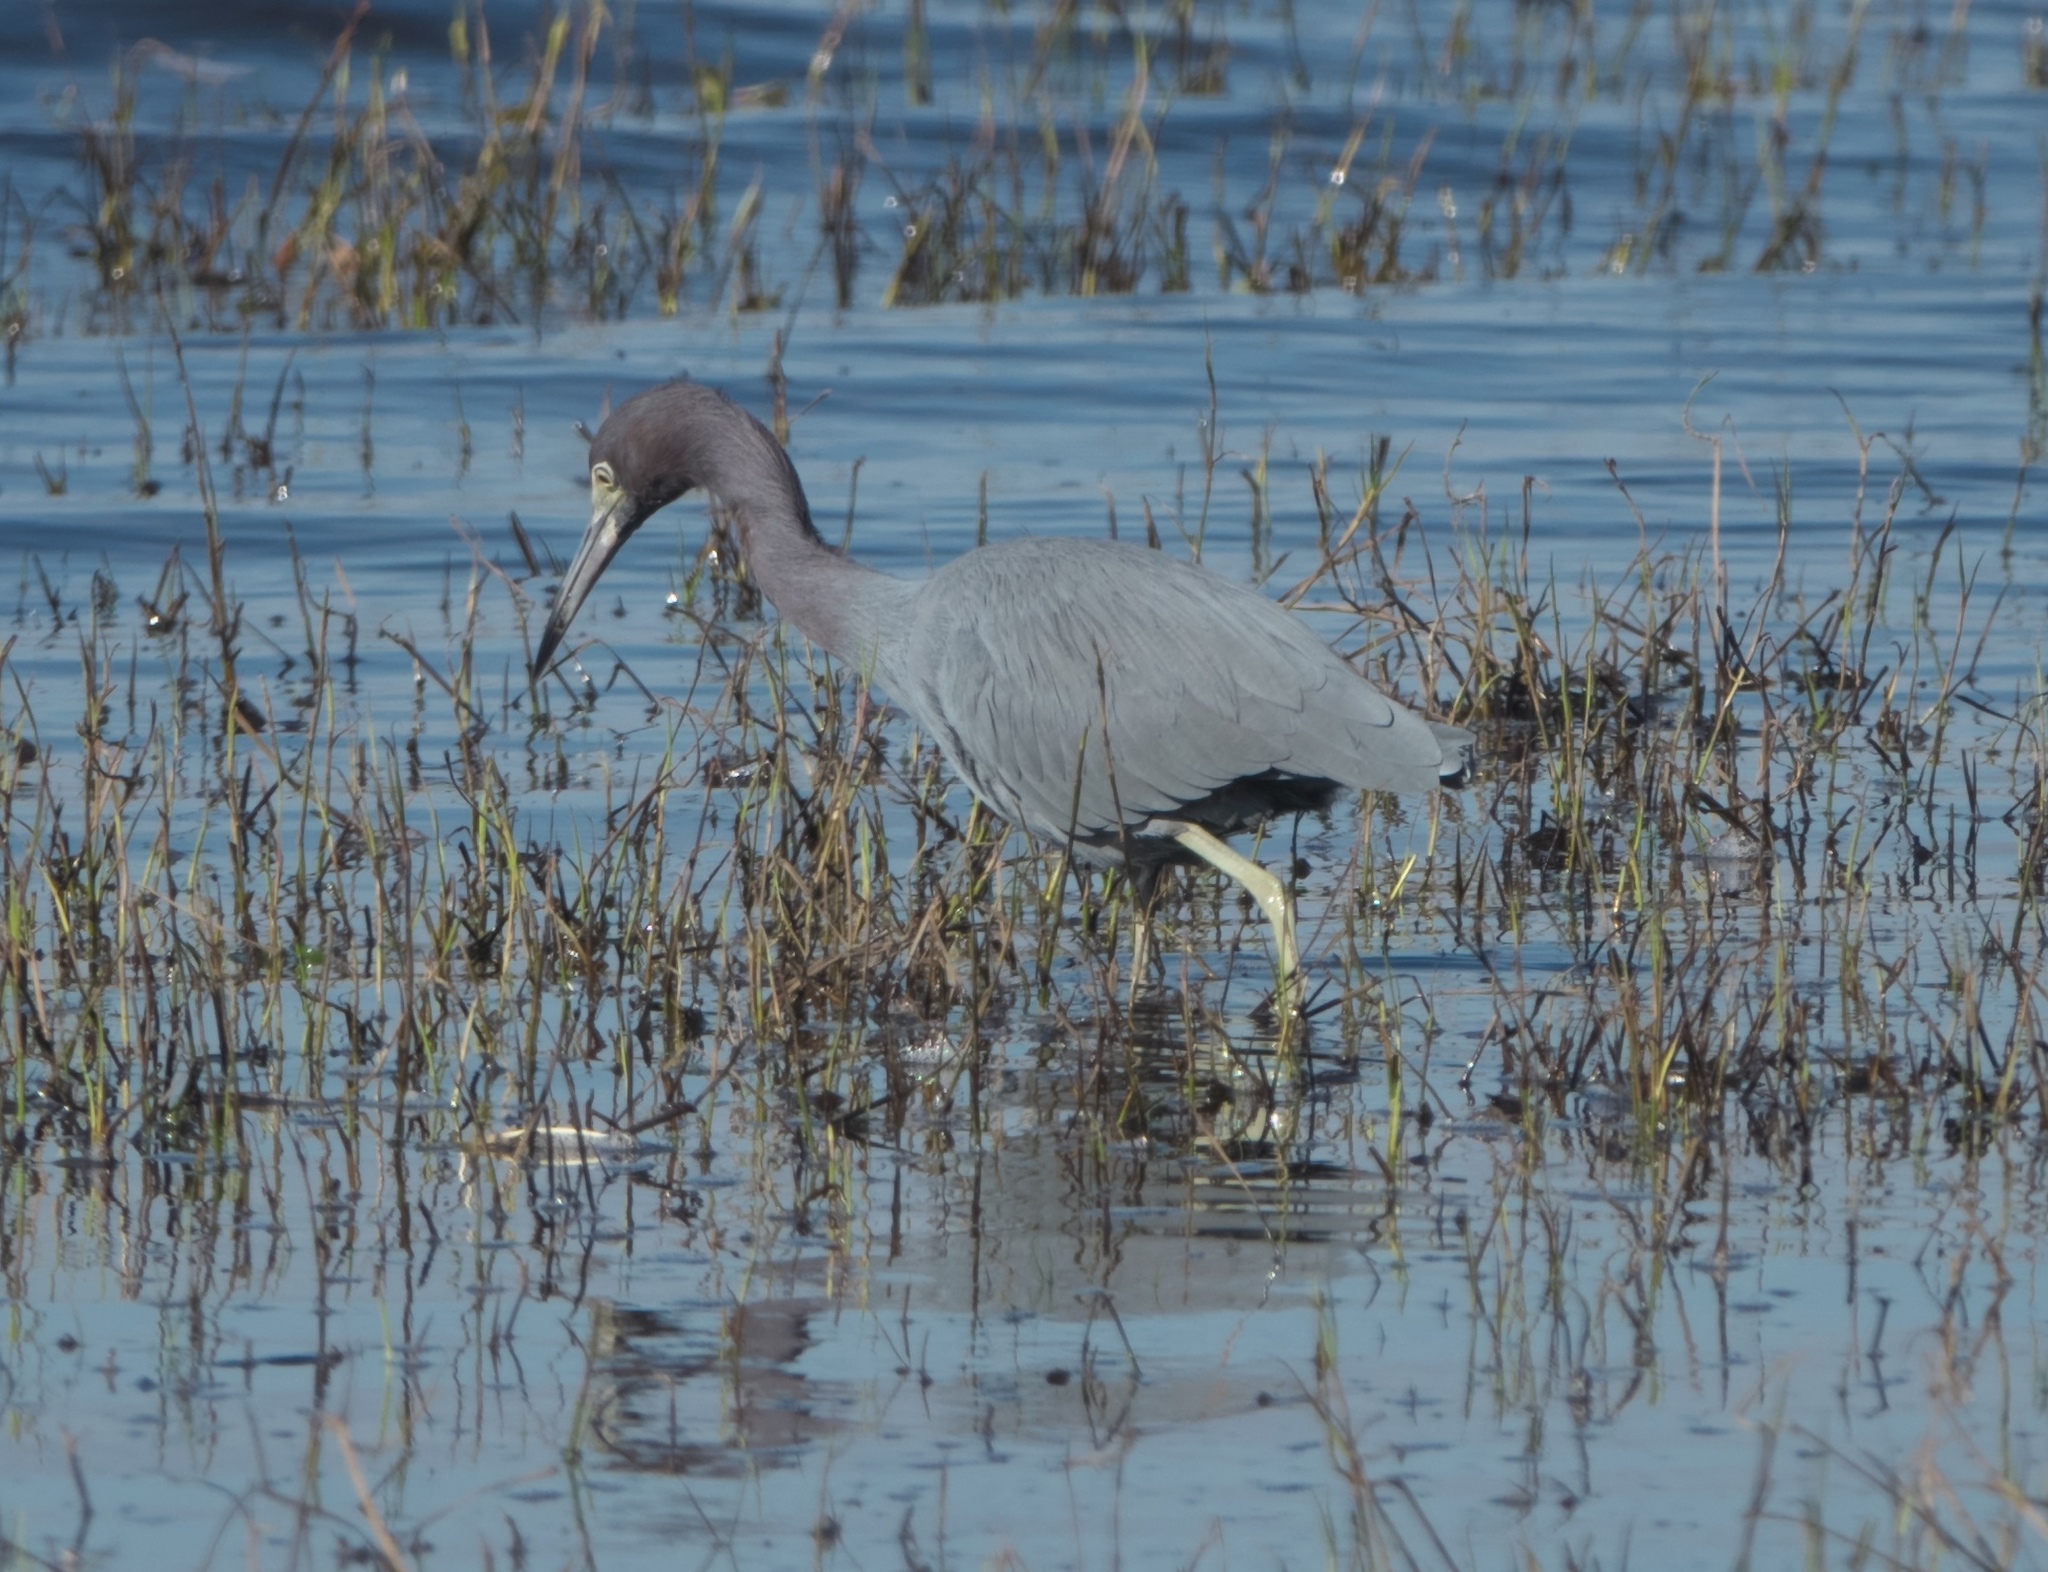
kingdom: Animalia
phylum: Chordata
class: Aves
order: Pelecaniformes
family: Ardeidae
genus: Egretta
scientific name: Egretta caerulea
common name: Little blue heron
